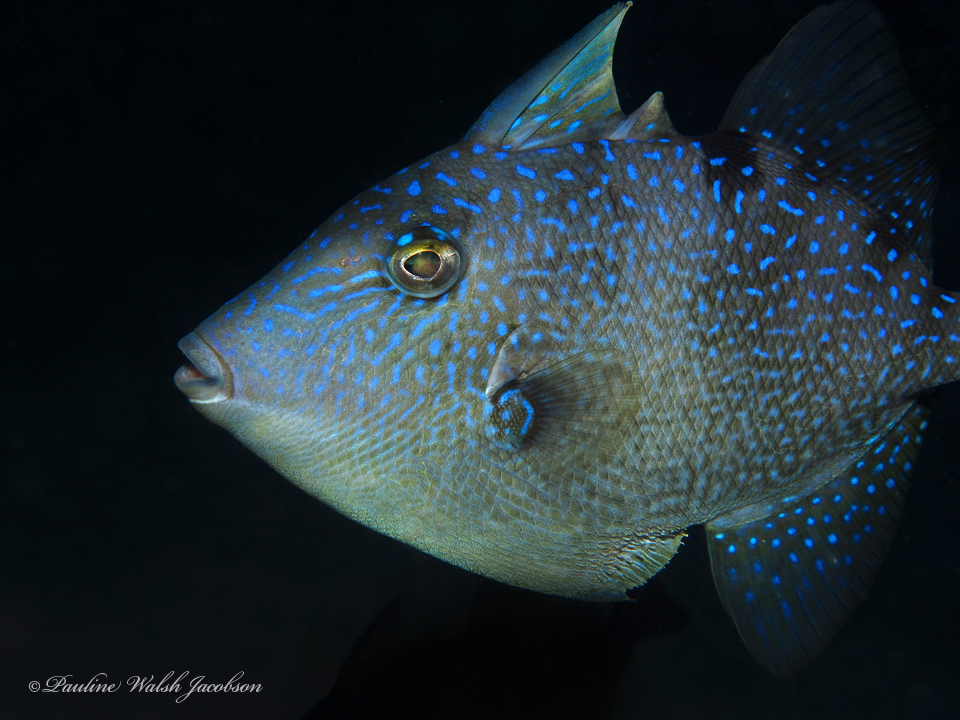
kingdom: Animalia
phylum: Chordata
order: Tetraodontiformes
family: Balistidae
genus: Balistes
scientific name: Balistes capriscus
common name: Grey triggerfish
